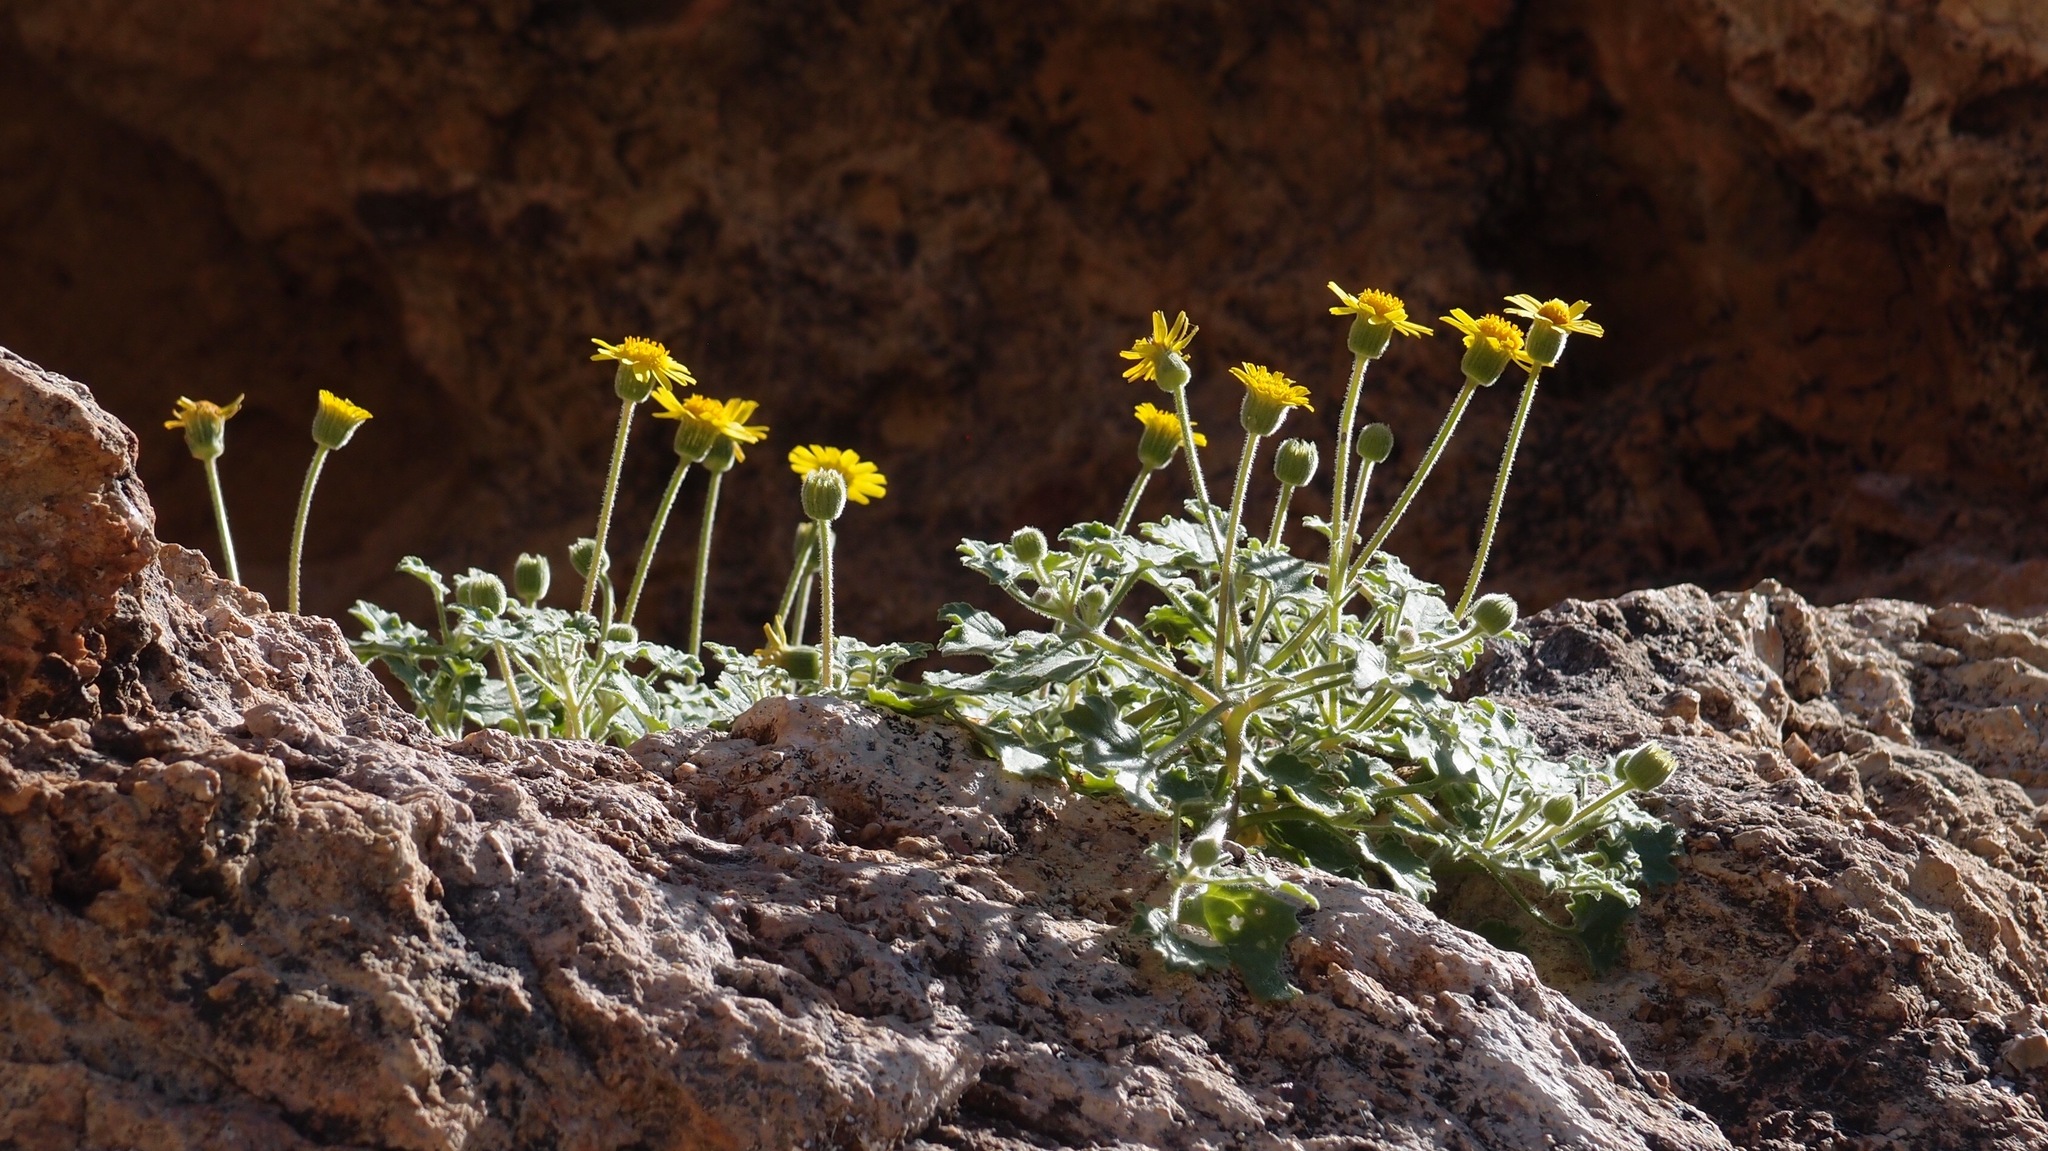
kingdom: Plantae
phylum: Tracheophyta
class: Magnoliopsida
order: Asterales
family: Asteraceae
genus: Laphamia
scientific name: Laphamia sanchezii
